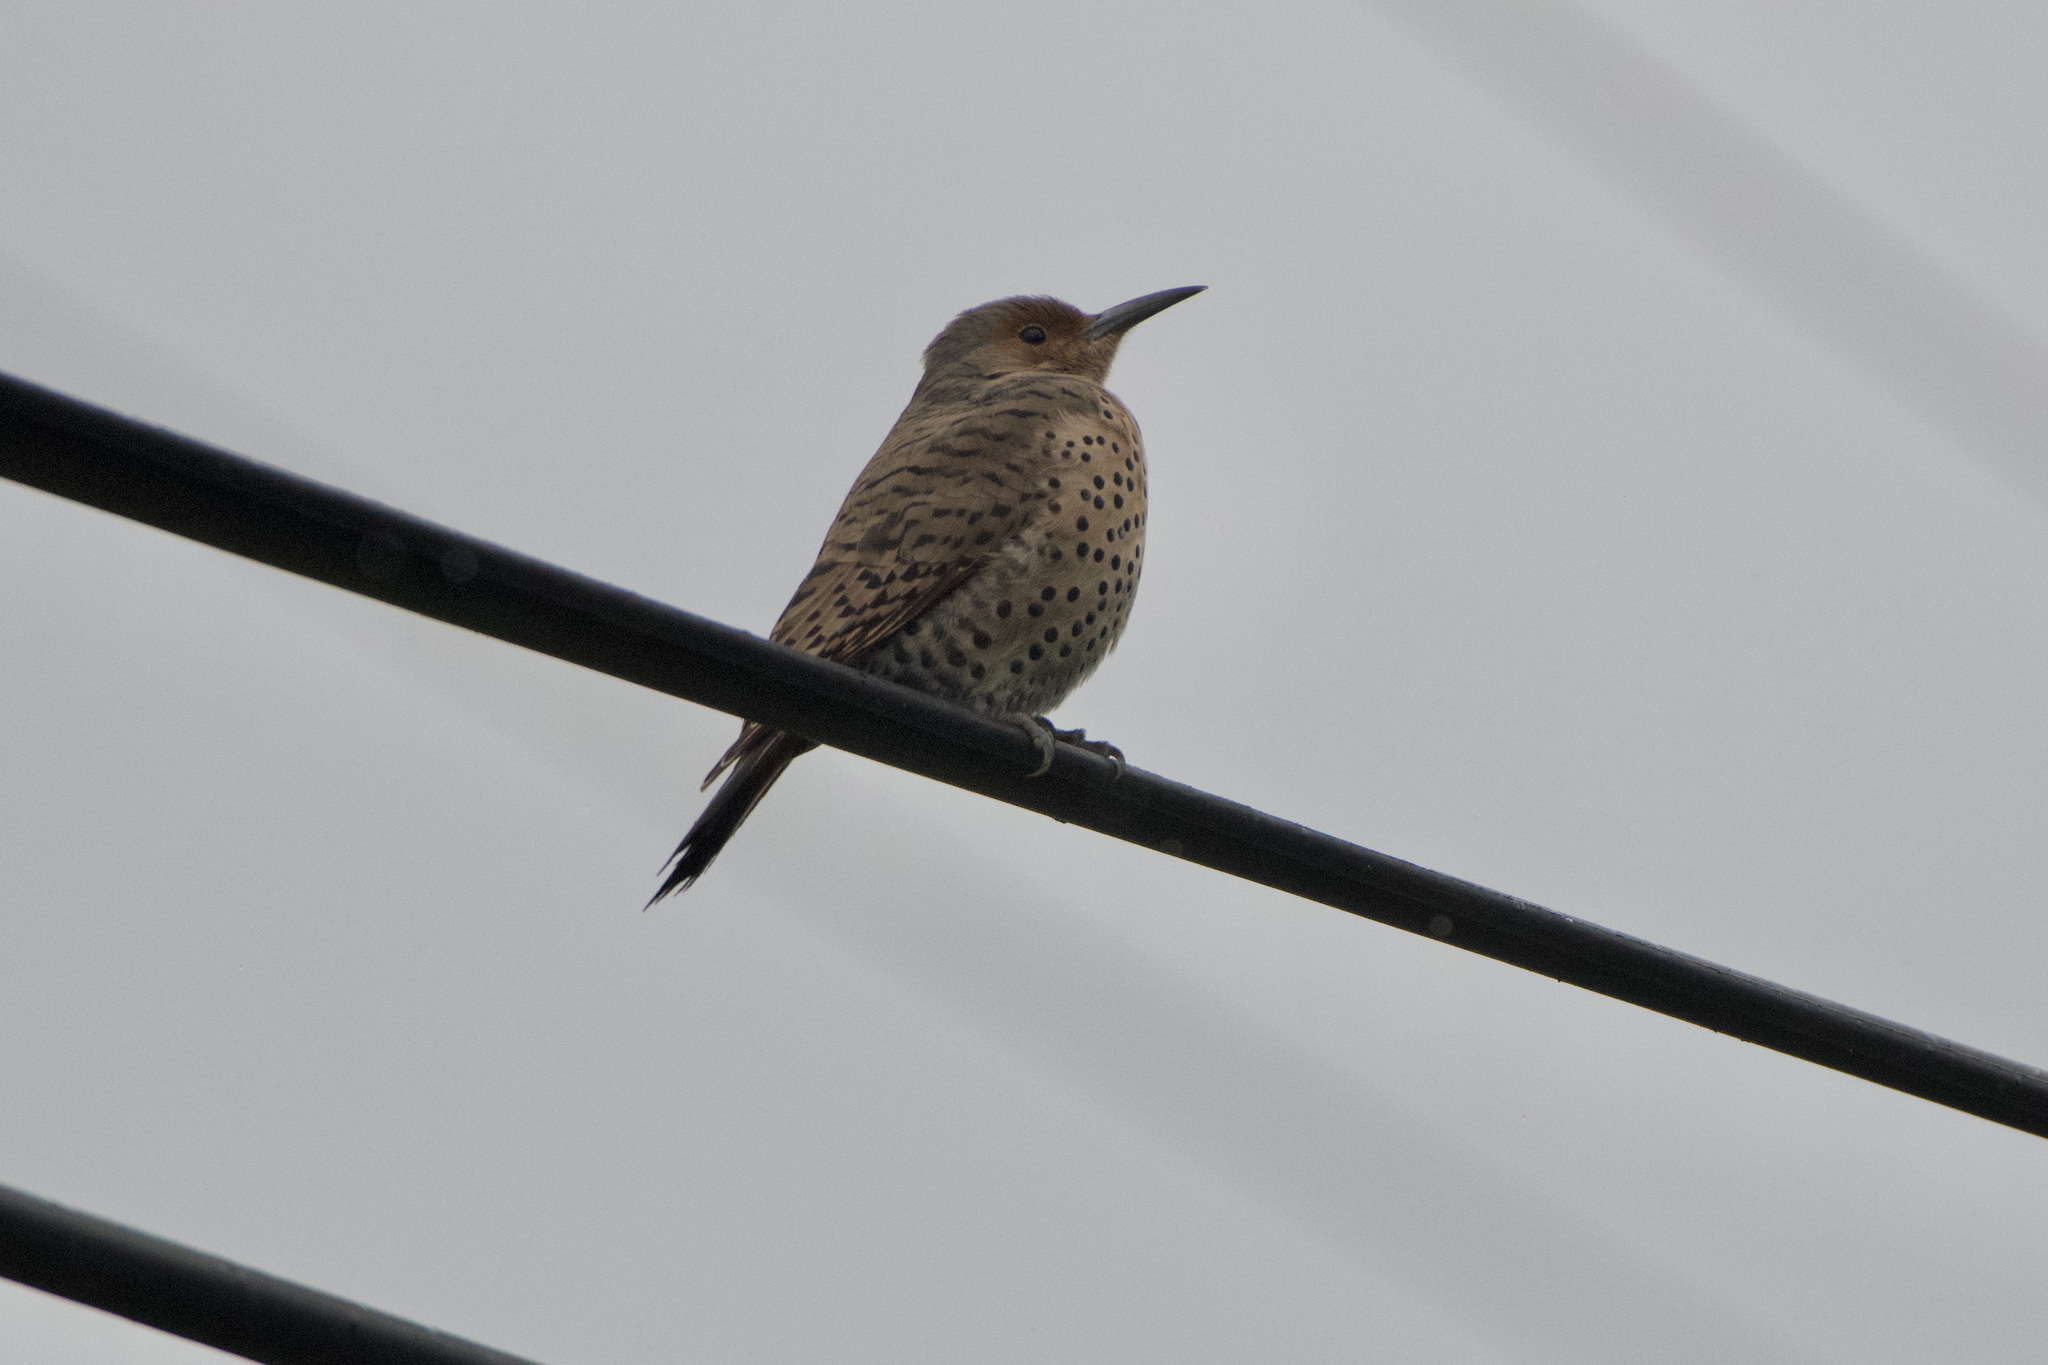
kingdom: Animalia
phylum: Chordata
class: Aves
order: Piciformes
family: Picidae
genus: Colaptes
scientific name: Colaptes auratus
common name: Northern flicker
